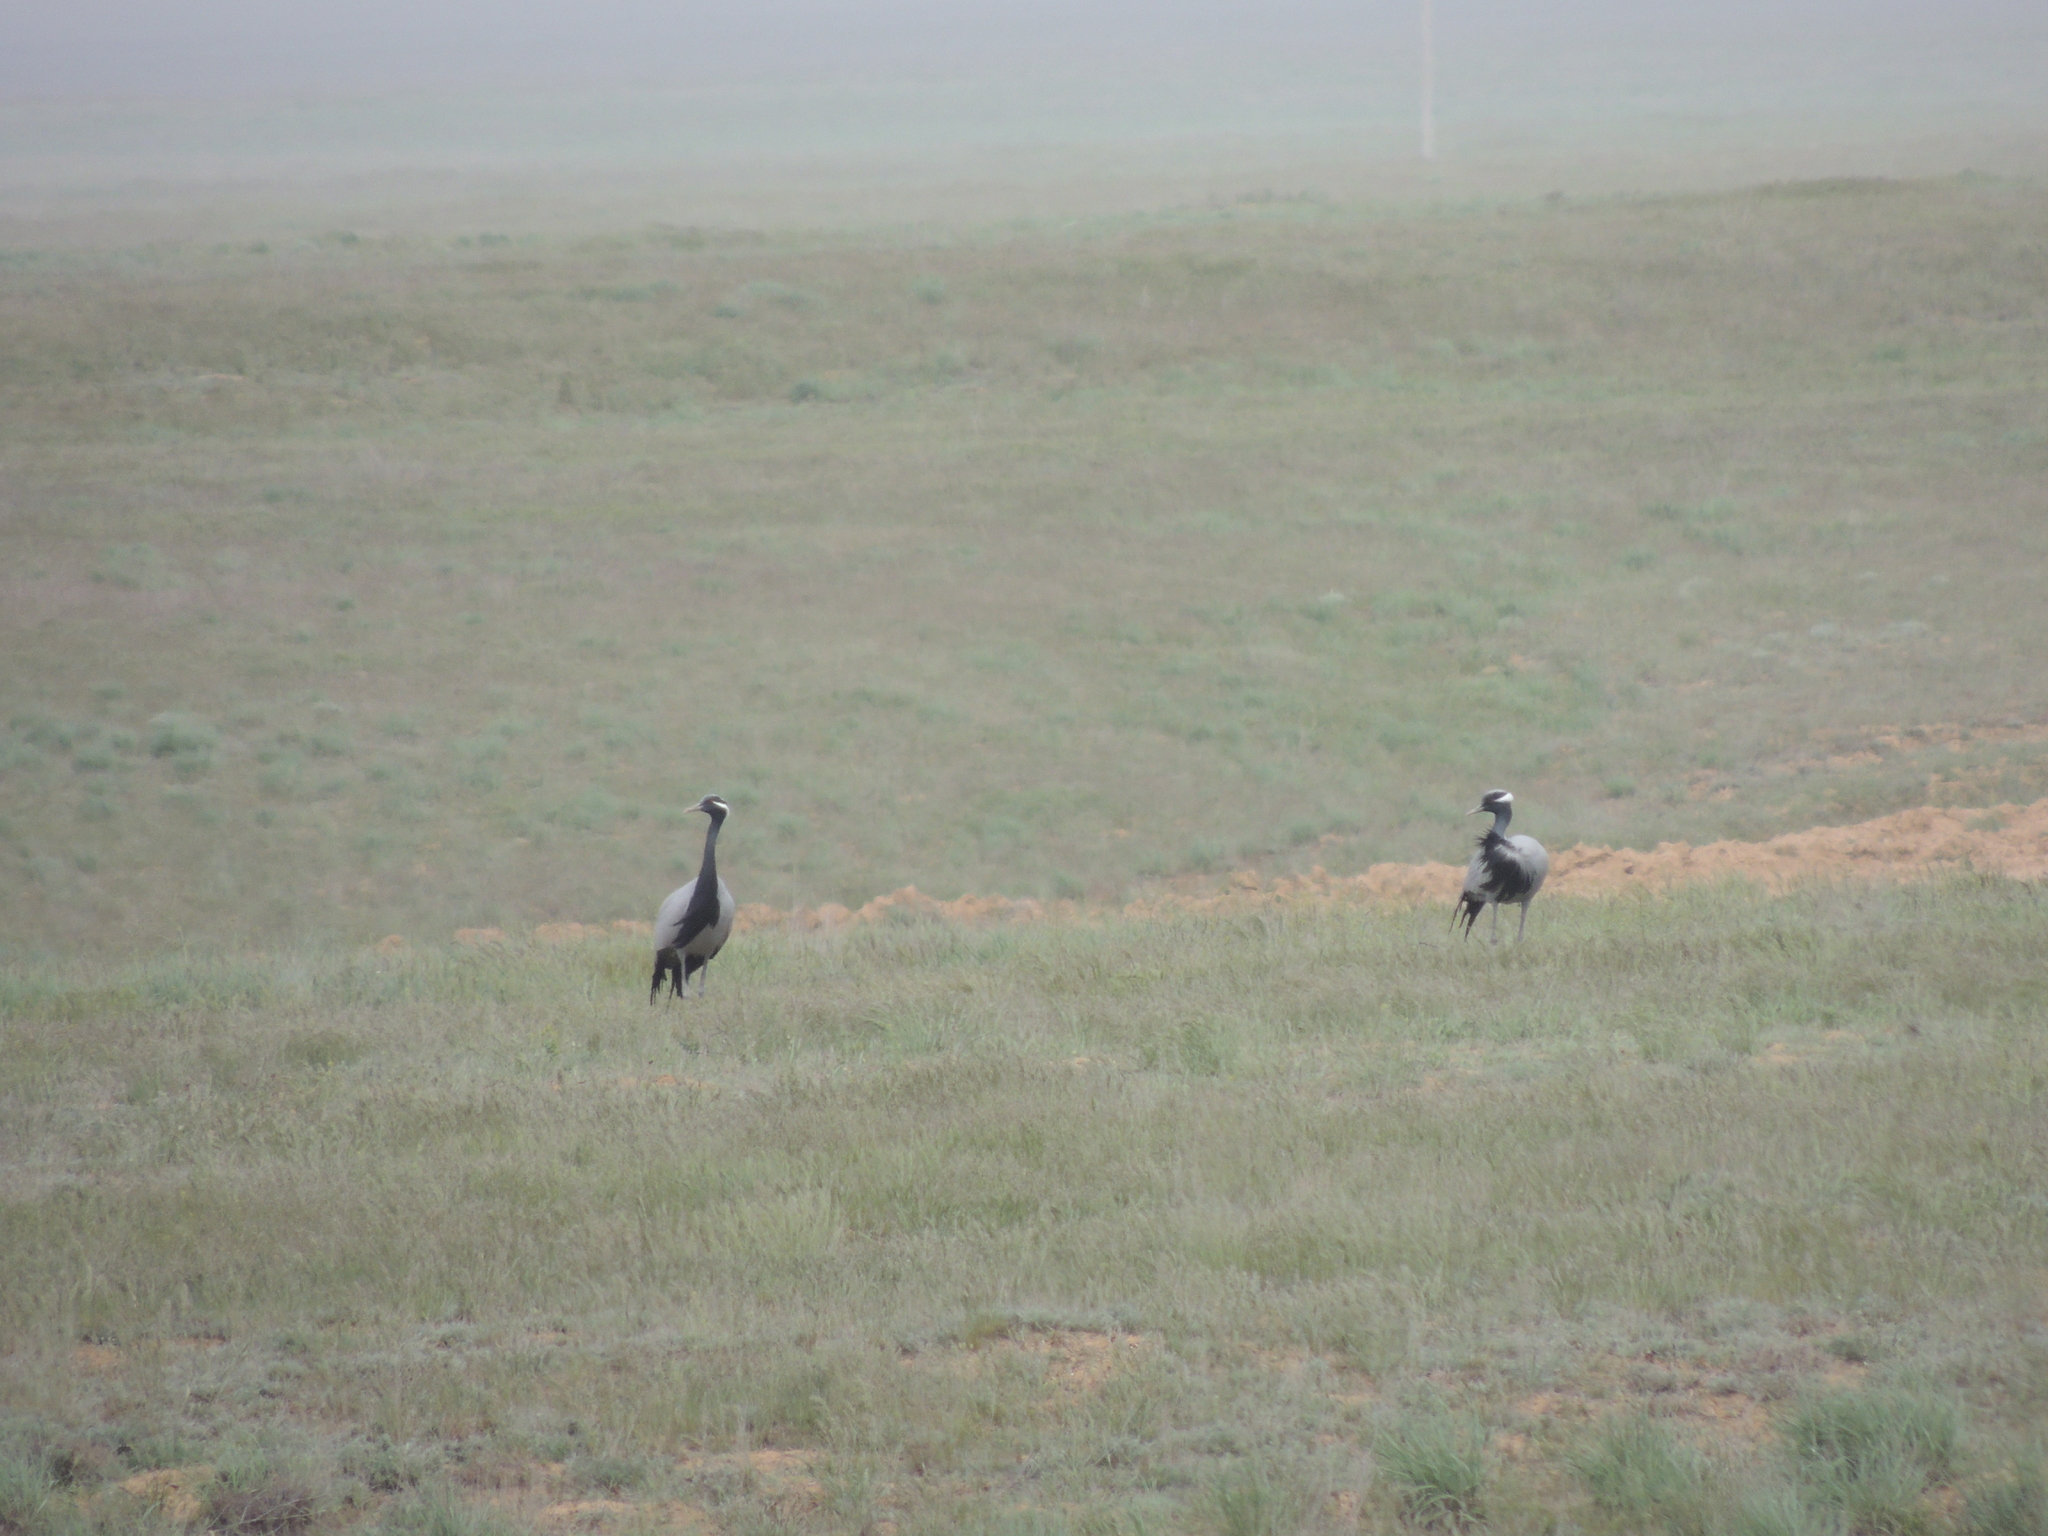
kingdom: Animalia
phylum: Chordata
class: Aves
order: Gruiformes
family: Gruidae
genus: Anthropoides
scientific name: Anthropoides virgo
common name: Demoiselle crane
